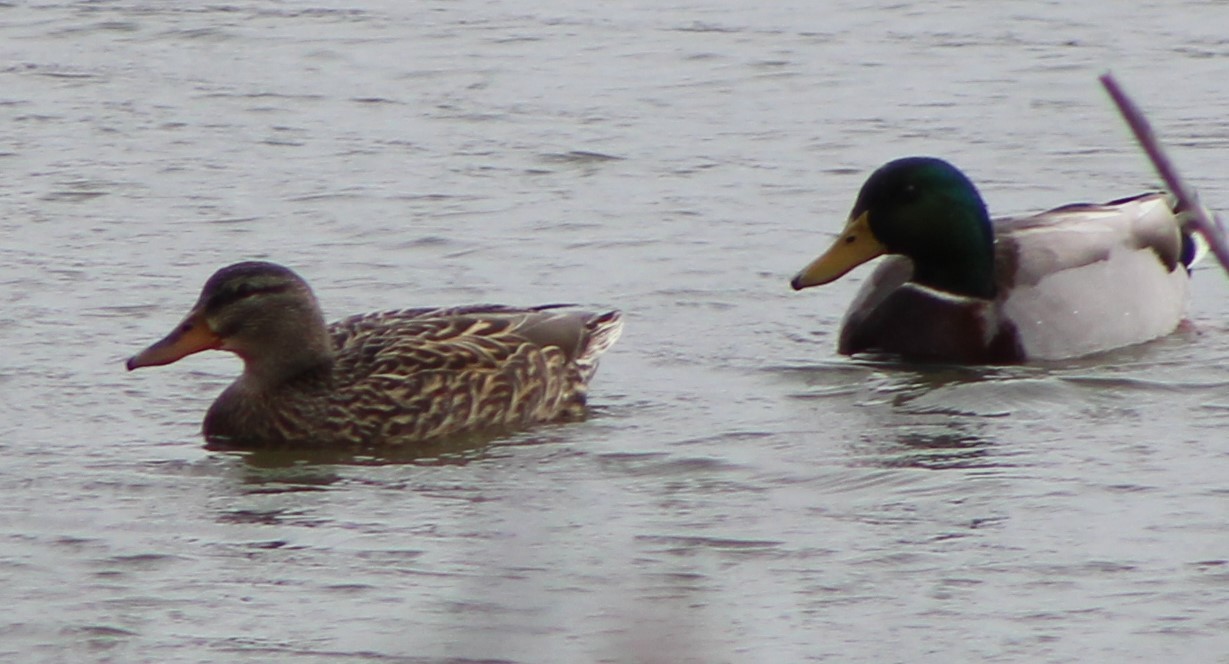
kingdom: Animalia
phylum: Chordata
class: Aves
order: Anseriformes
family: Anatidae
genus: Anas
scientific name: Anas platyrhynchos
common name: Mallard
